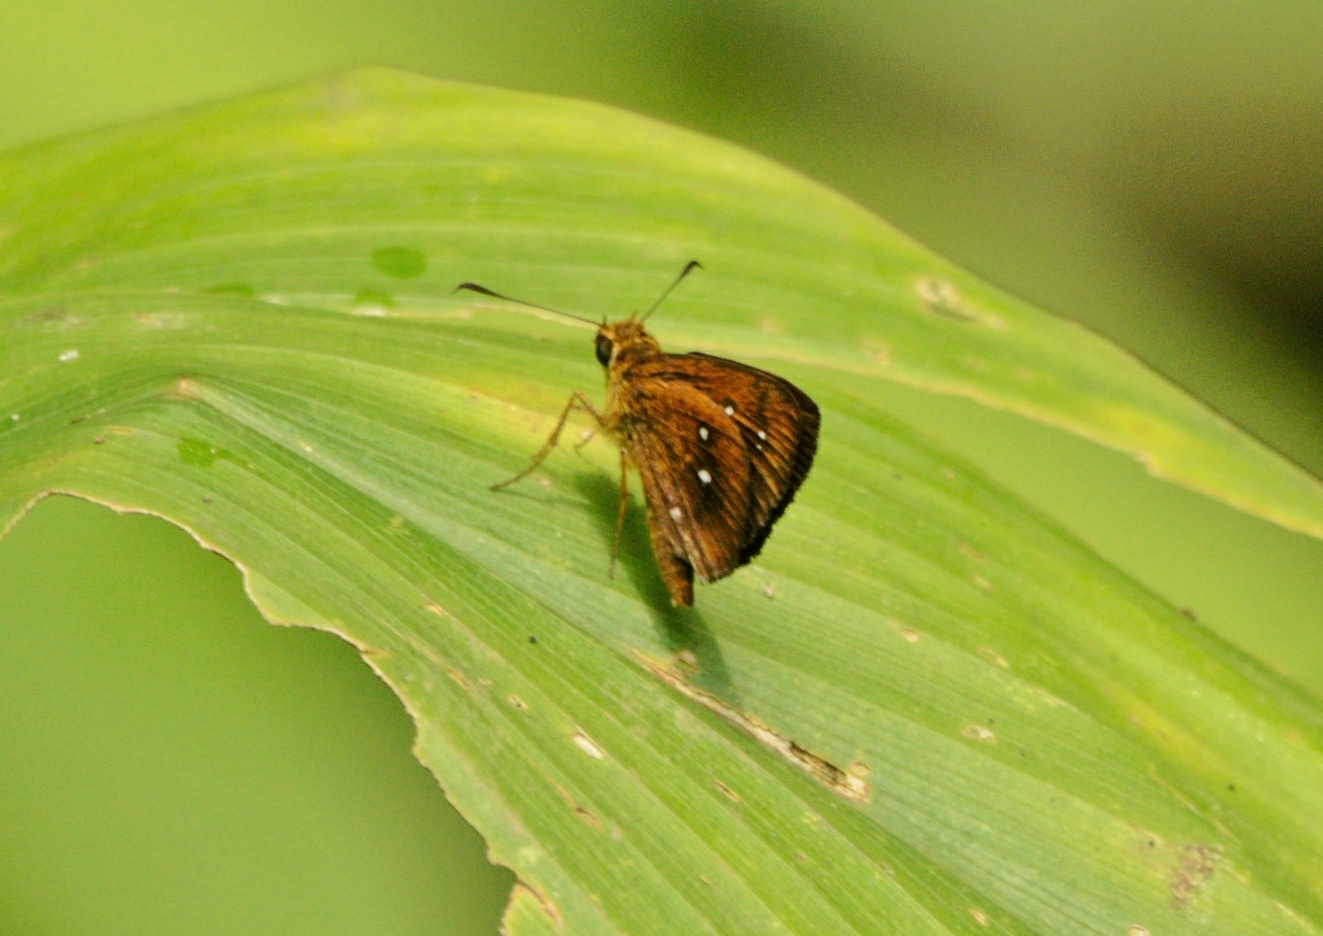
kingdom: Animalia
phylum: Arthropoda
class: Insecta
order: Lepidoptera
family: Hesperiidae
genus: Iambrix
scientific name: Iambrix salsala
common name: Chestnut bob
